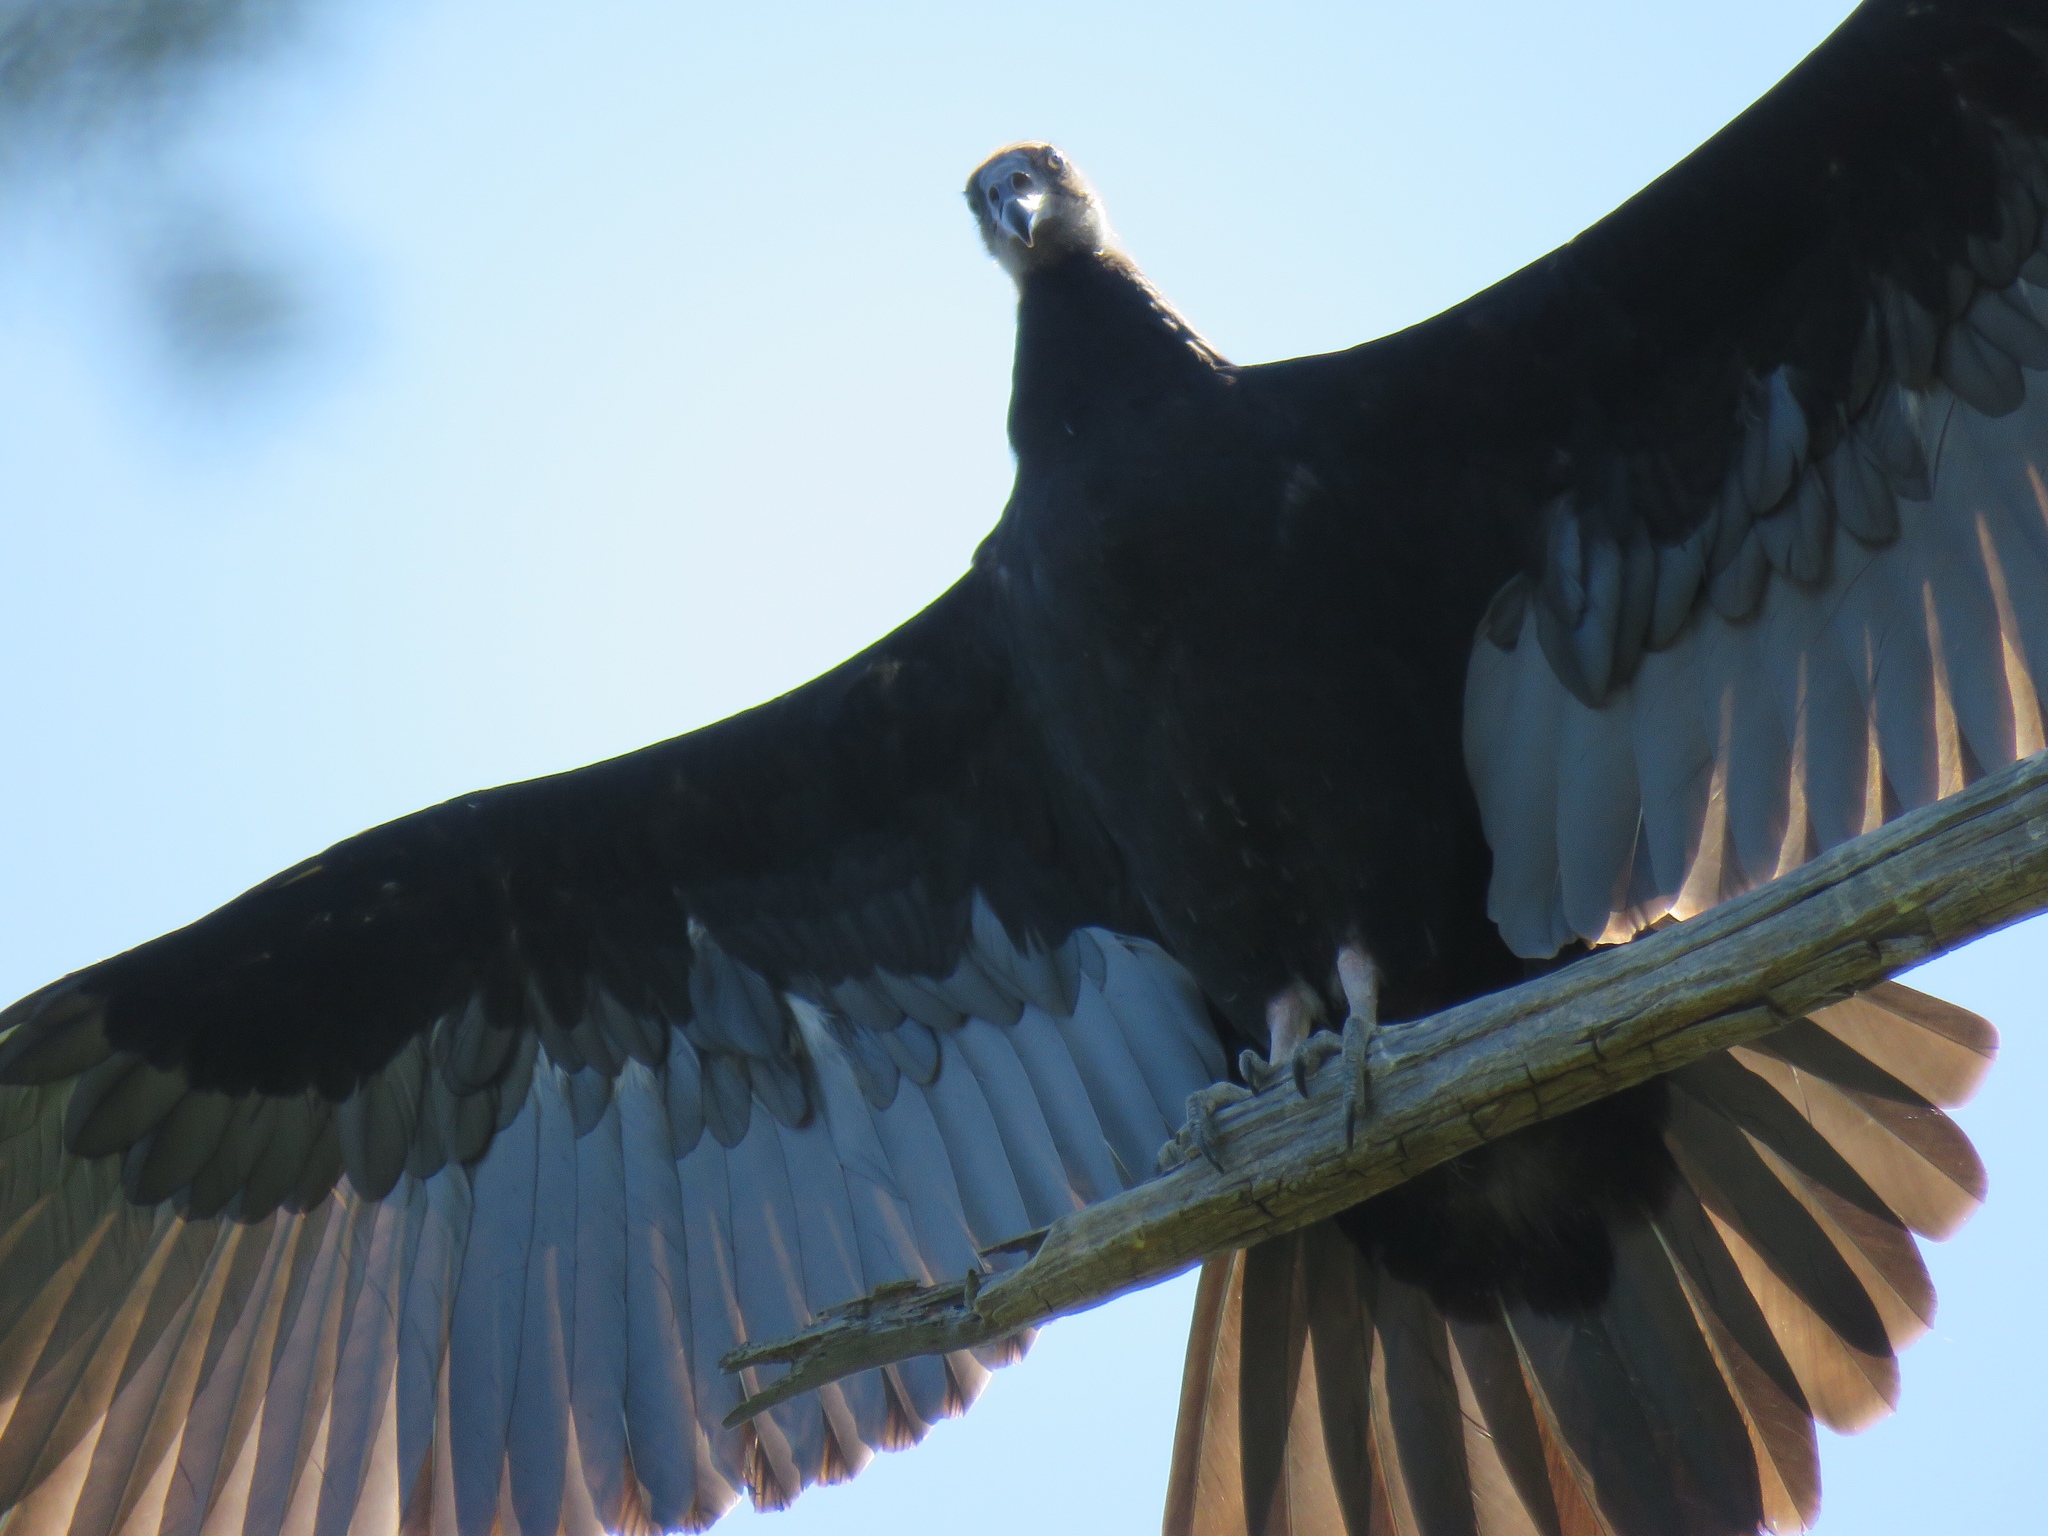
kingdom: Animalia
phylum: Chordata
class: Aves
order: Accipitriformes
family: Cathartidae
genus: Cathartes
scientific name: Cathartes aura
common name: Turkey vulture
